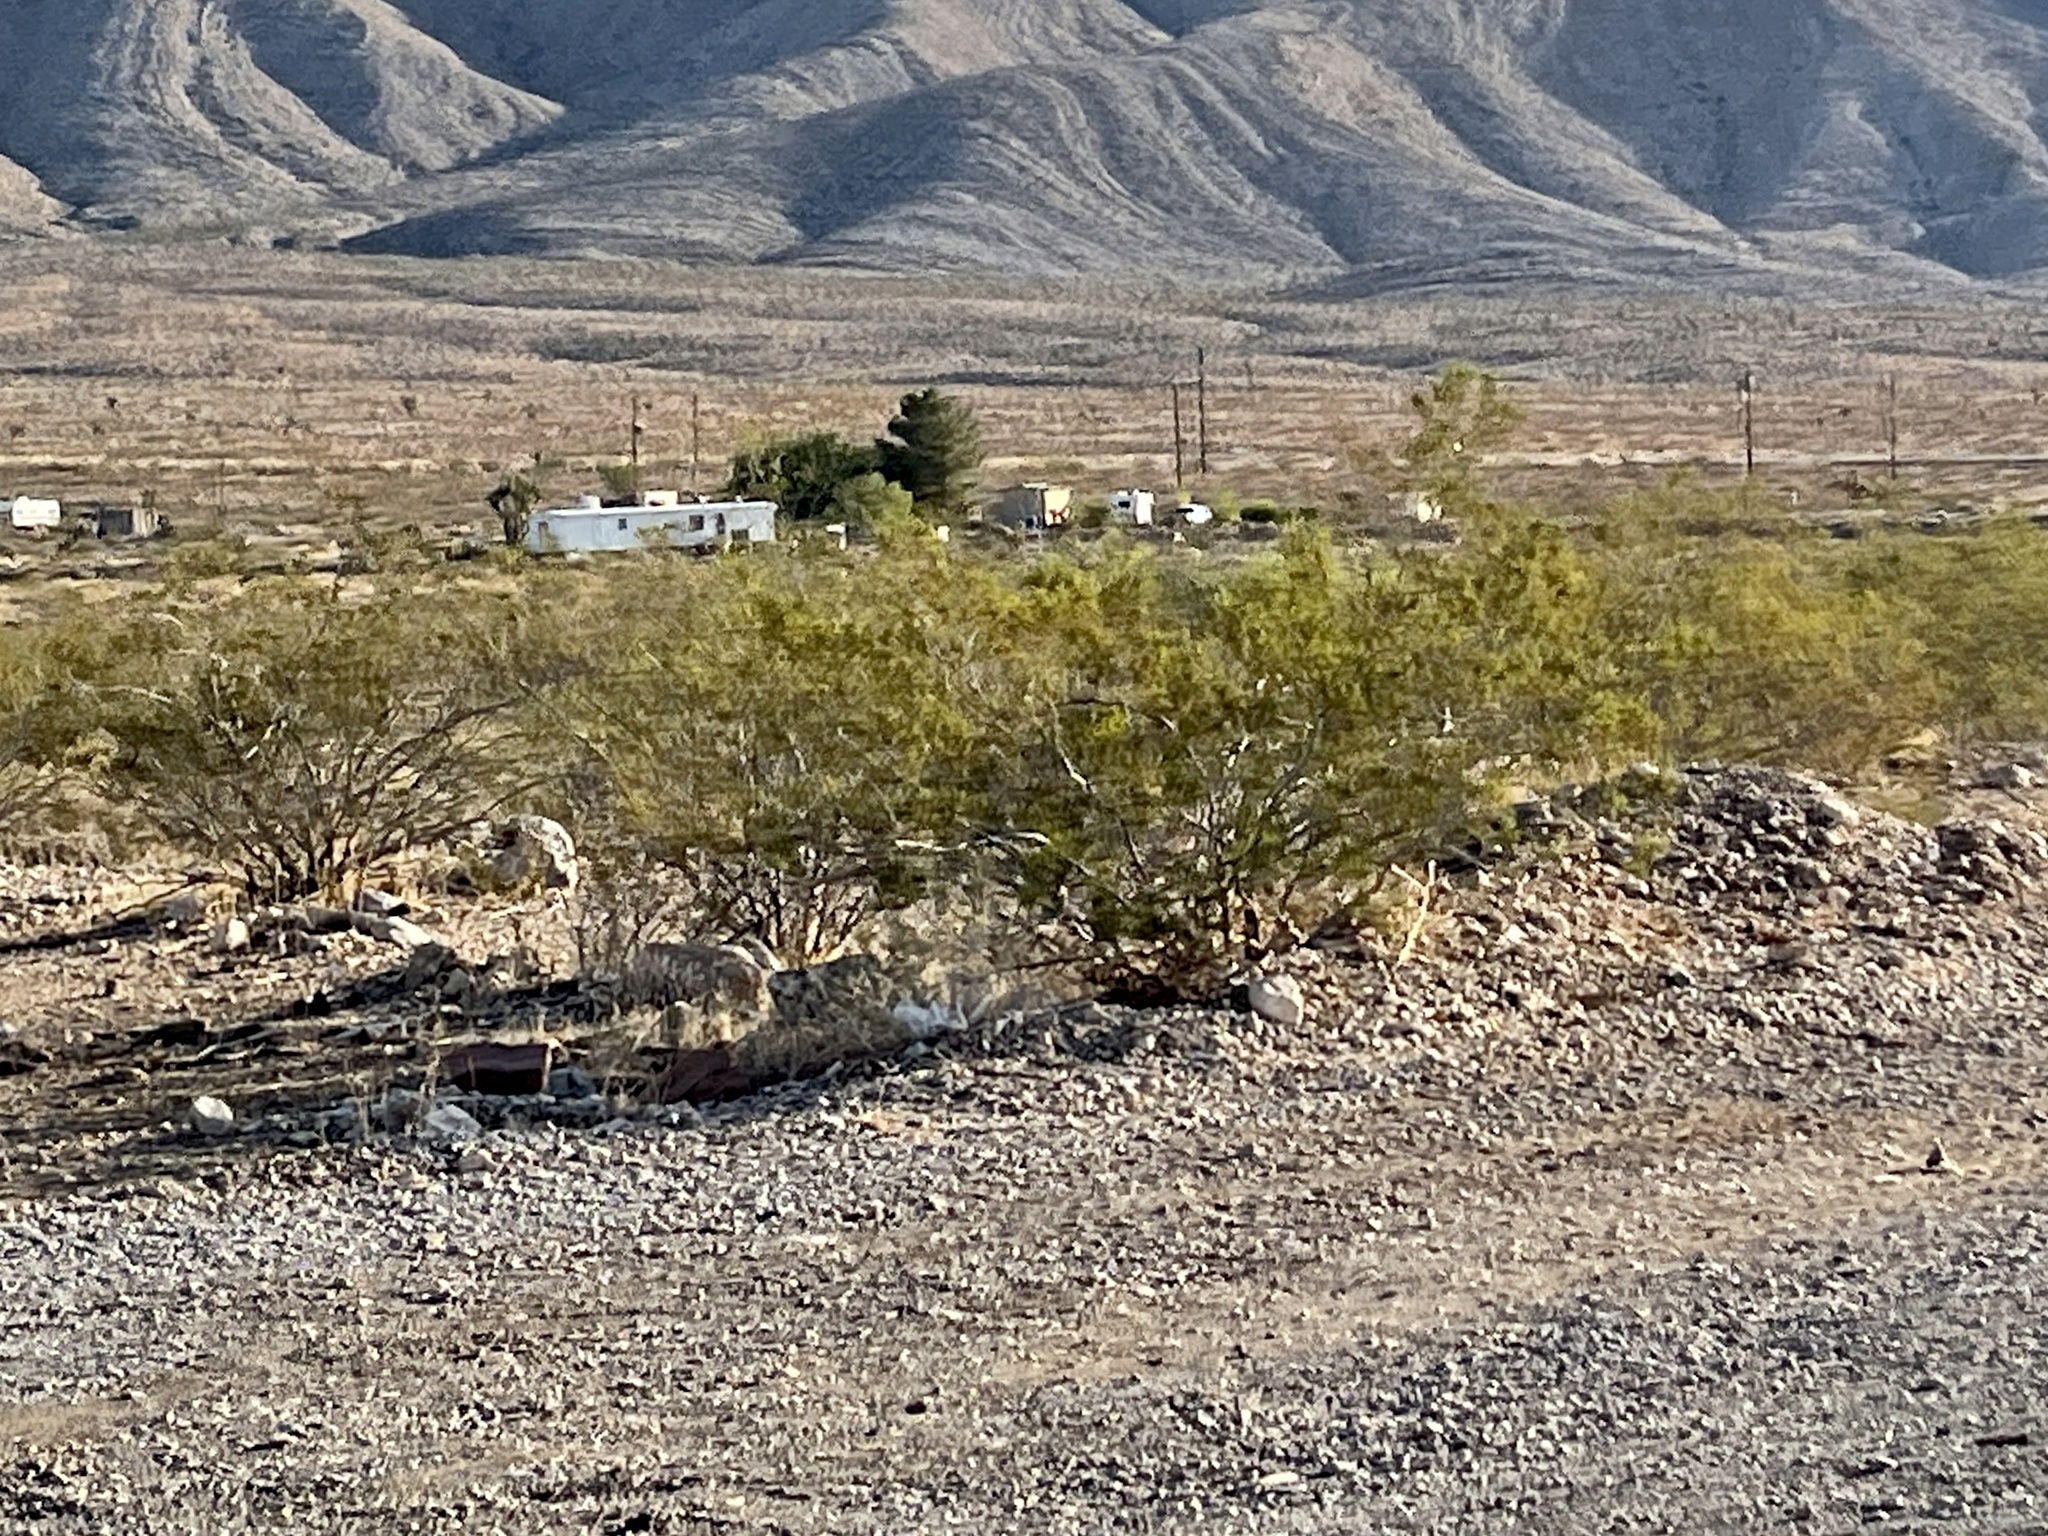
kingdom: Plantae
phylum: Tracheophyta
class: Magnoliopsida
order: Zygophyllales
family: Zygophyllaceae
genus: Larrea
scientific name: Larrea tridentata
